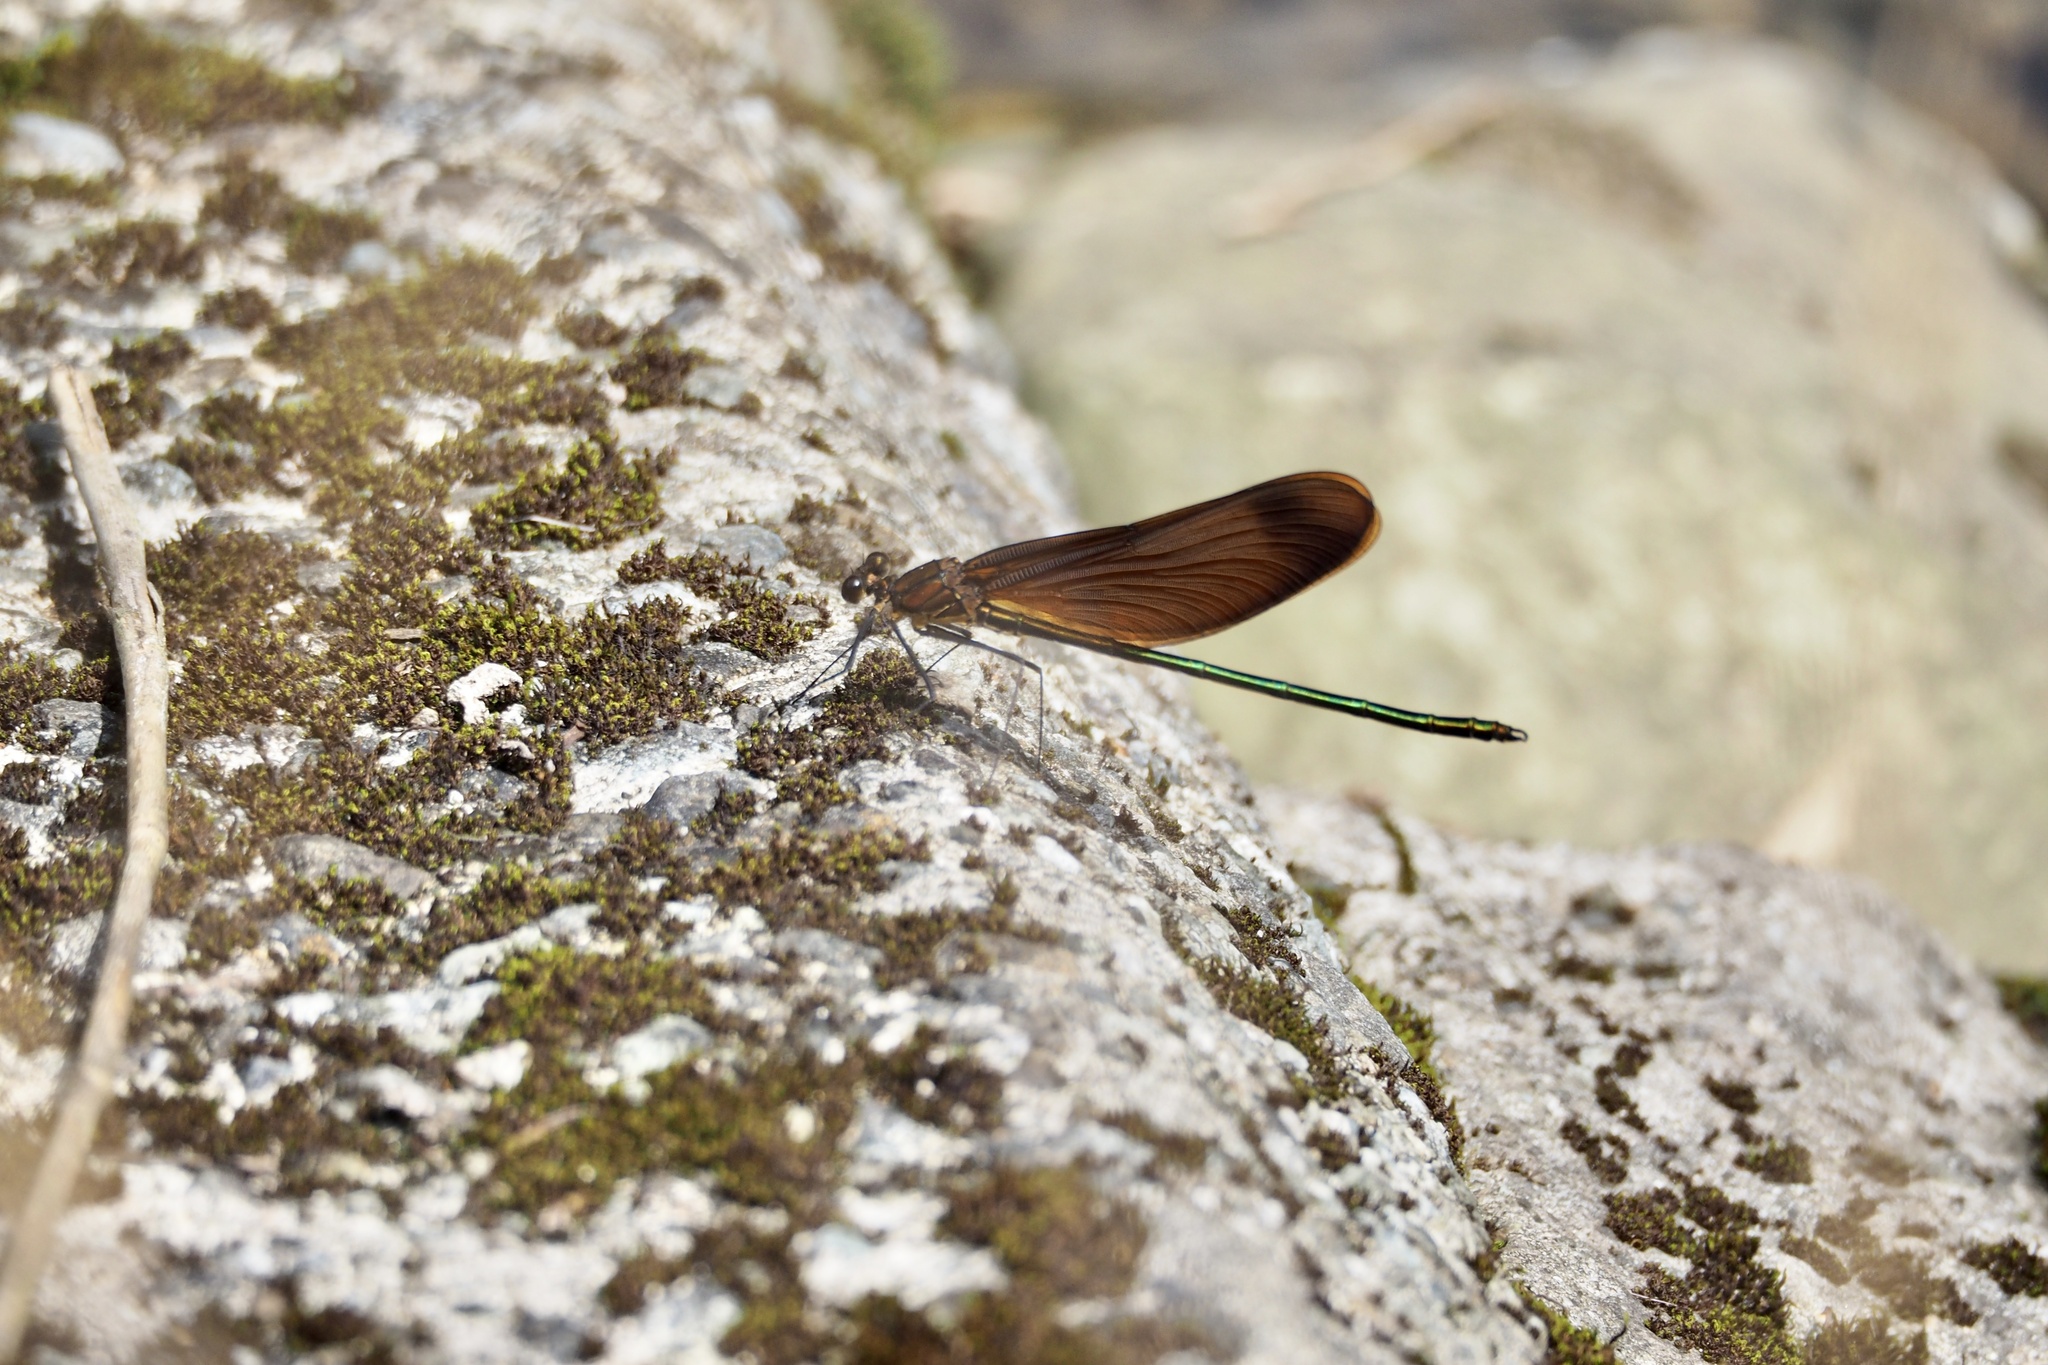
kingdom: Animalia
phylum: Arthropoda
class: Insecta
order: Odonata
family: Calopterygidae
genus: Calopteryx
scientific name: Calopteryx cornelia
